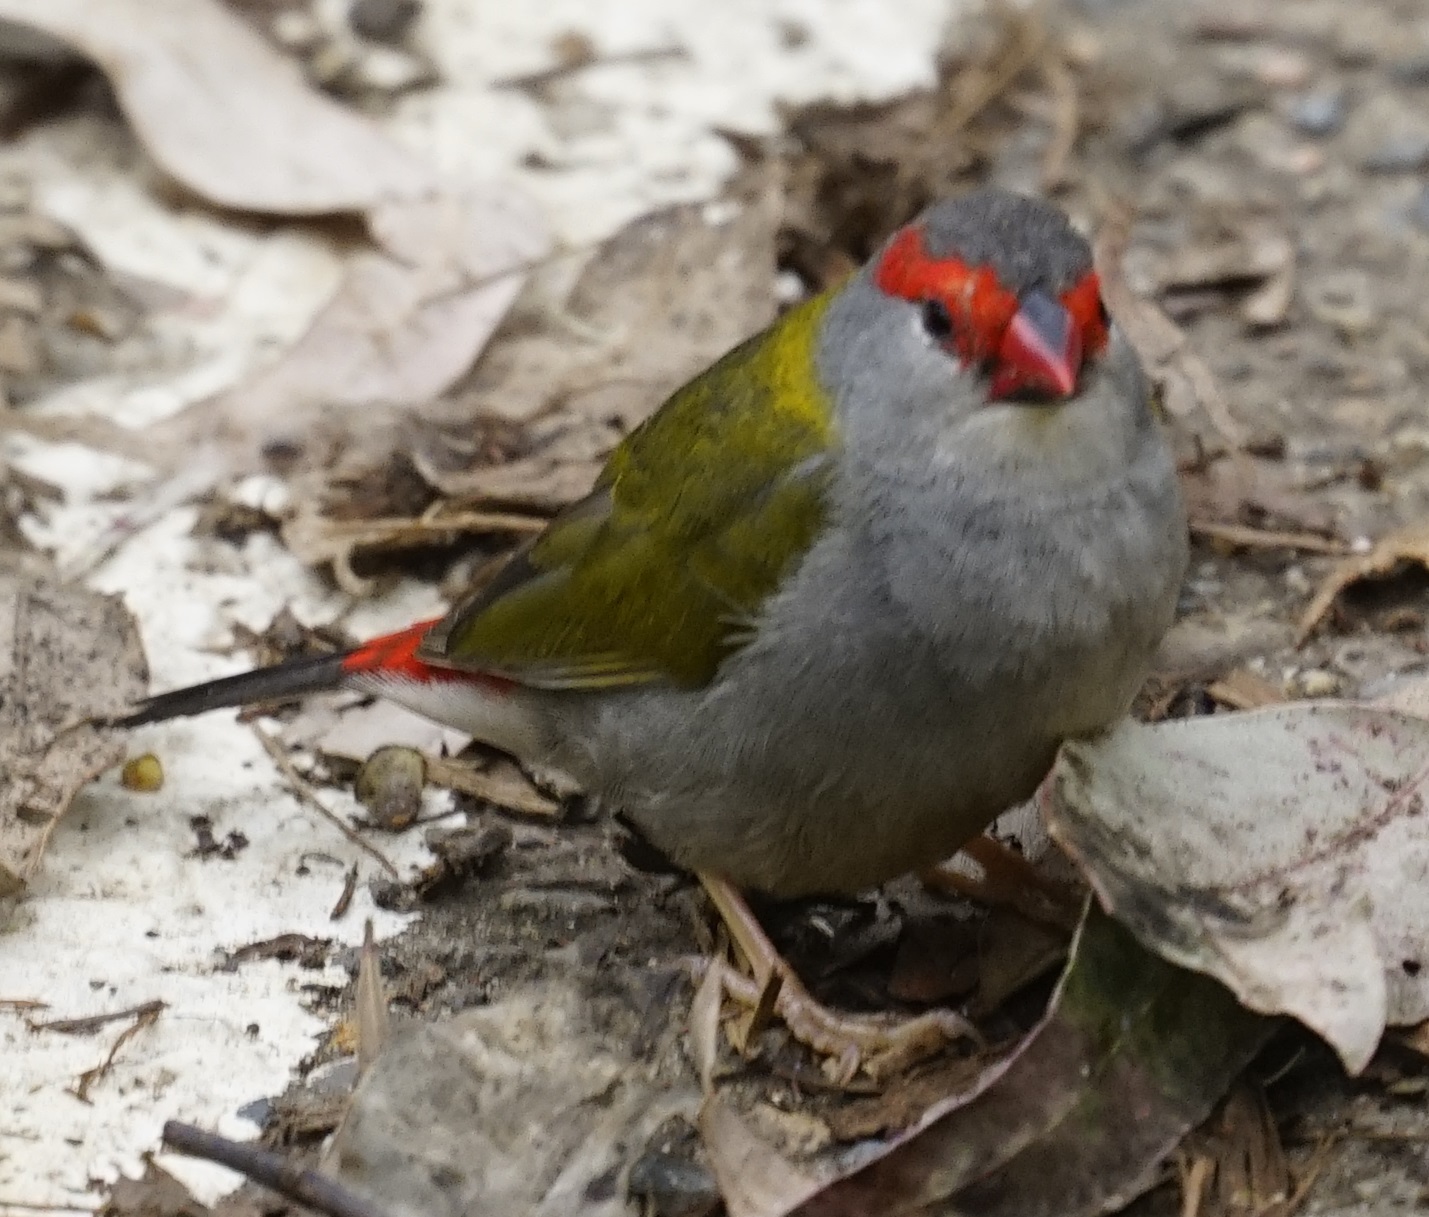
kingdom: Animalia
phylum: Chordata
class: Aves
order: Passeriformes
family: Estrildidae
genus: Neochmia
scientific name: Neochmia temporalis
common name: Red-browed finch
